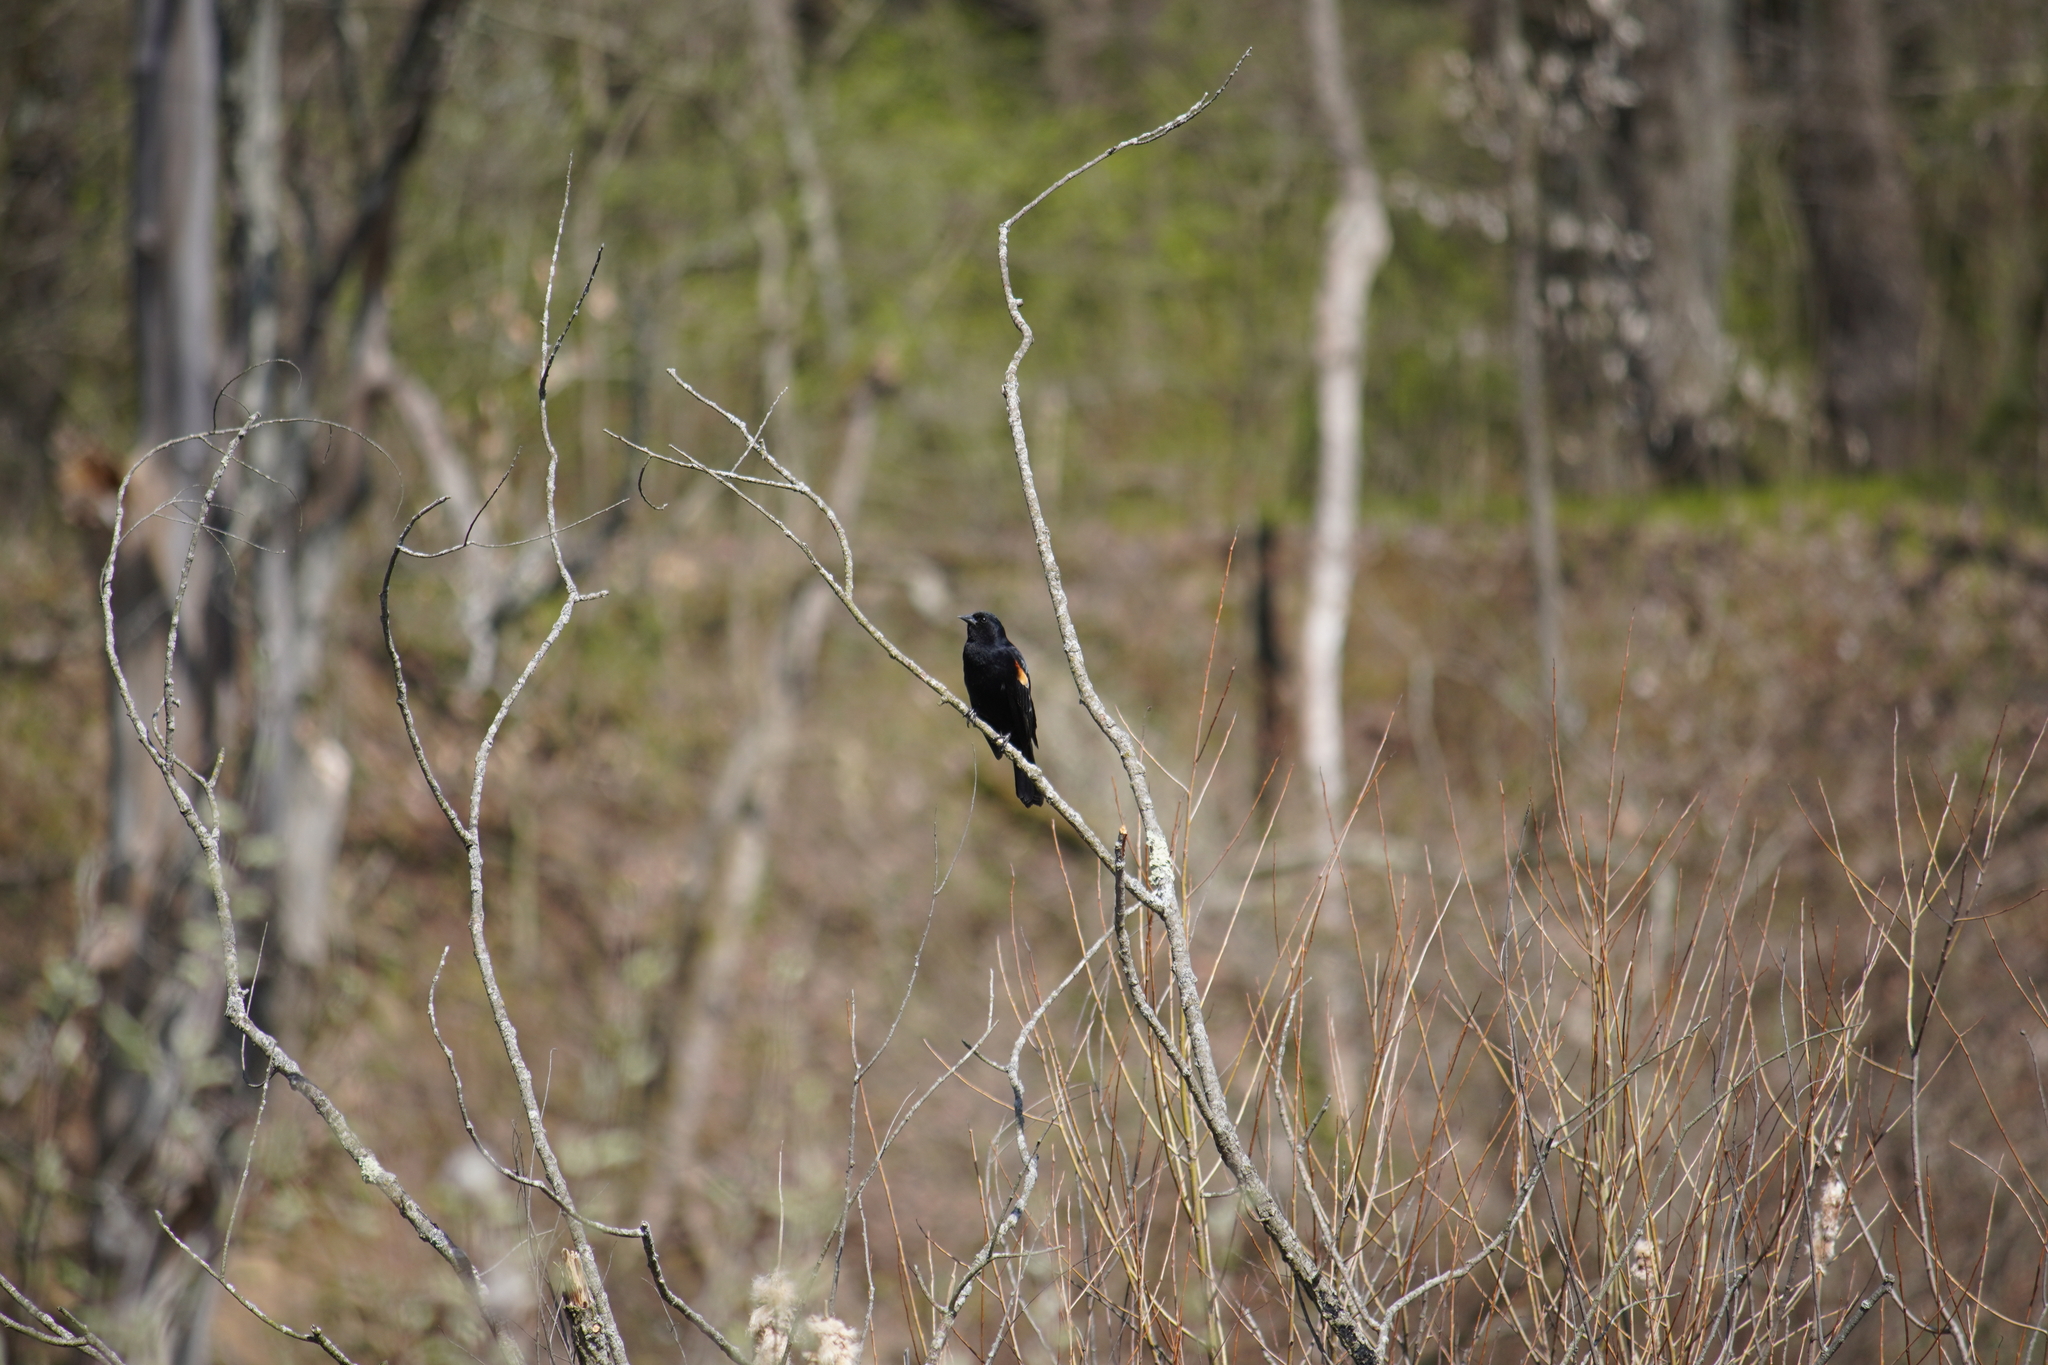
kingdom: Animalia
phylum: Chordata
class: Aves
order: Passeriformes
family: Icteridae
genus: Agelaius
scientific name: Agelaius phoeniceus
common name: Red-winged blackbird
